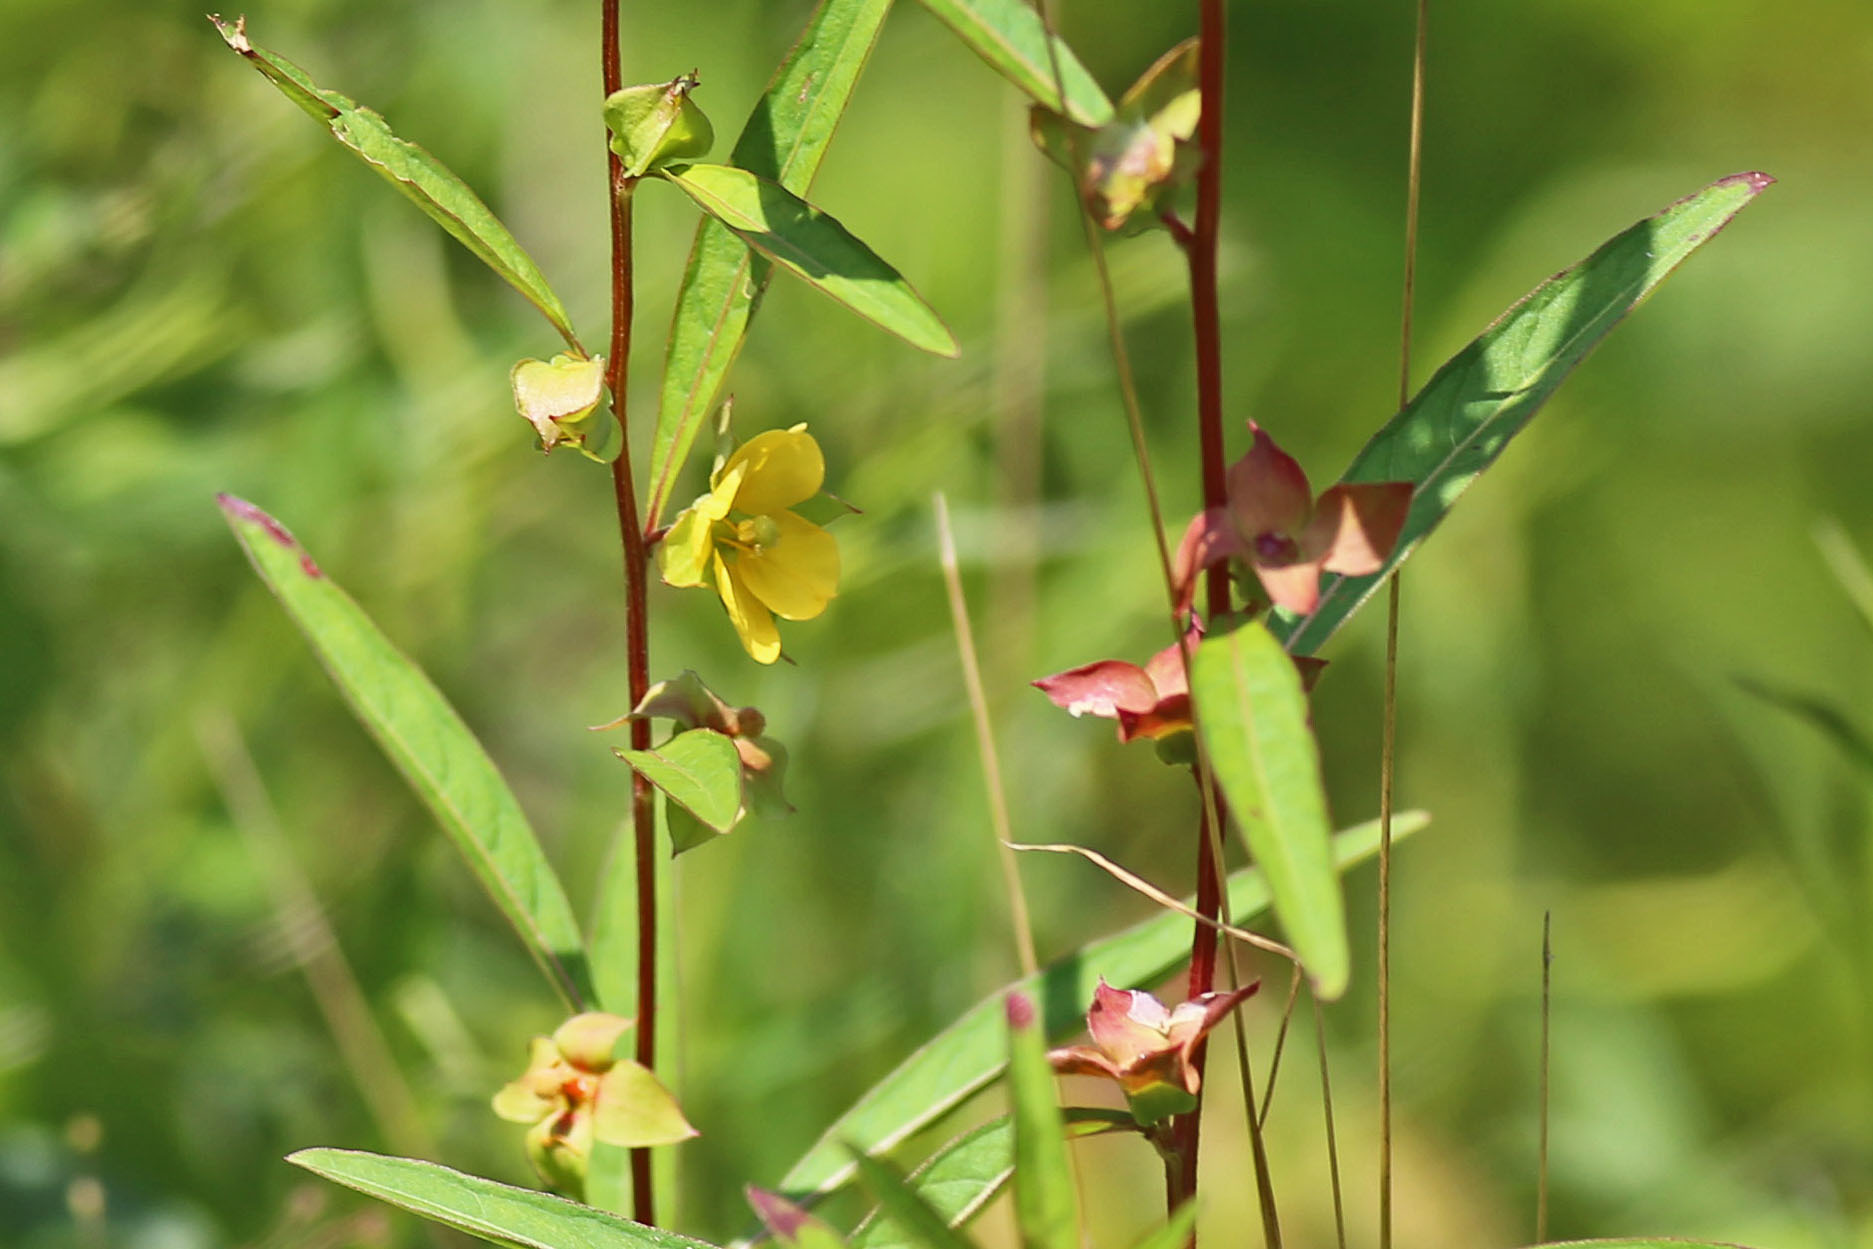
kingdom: Plantae
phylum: Tracheophyta
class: Magnoliopsida
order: Myrtales
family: Onagraceae
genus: Ludwigia
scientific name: Ludwigia alternifolia
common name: Rattlebox
